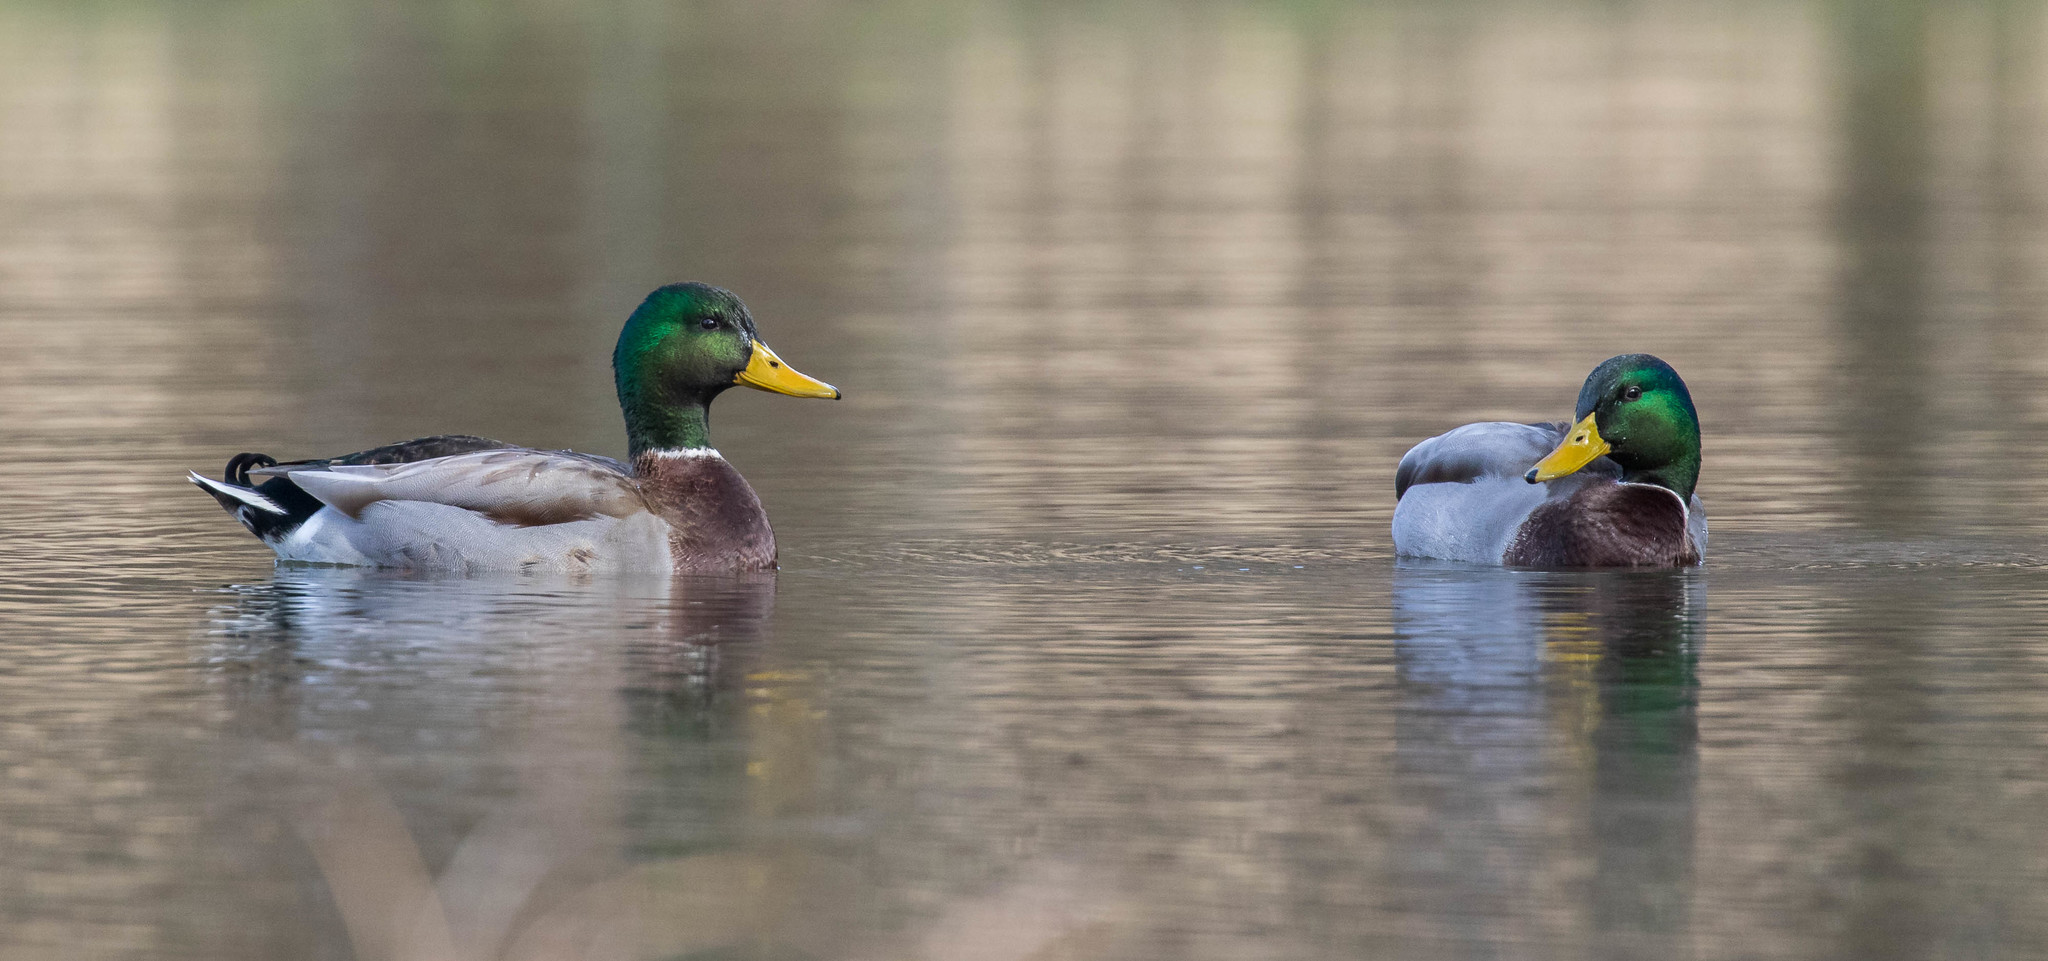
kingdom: Animalia
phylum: Chordata
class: Aves
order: Anseriformes
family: Anatidae
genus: Anas
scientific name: Anas platyrhynchos
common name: Mallard
